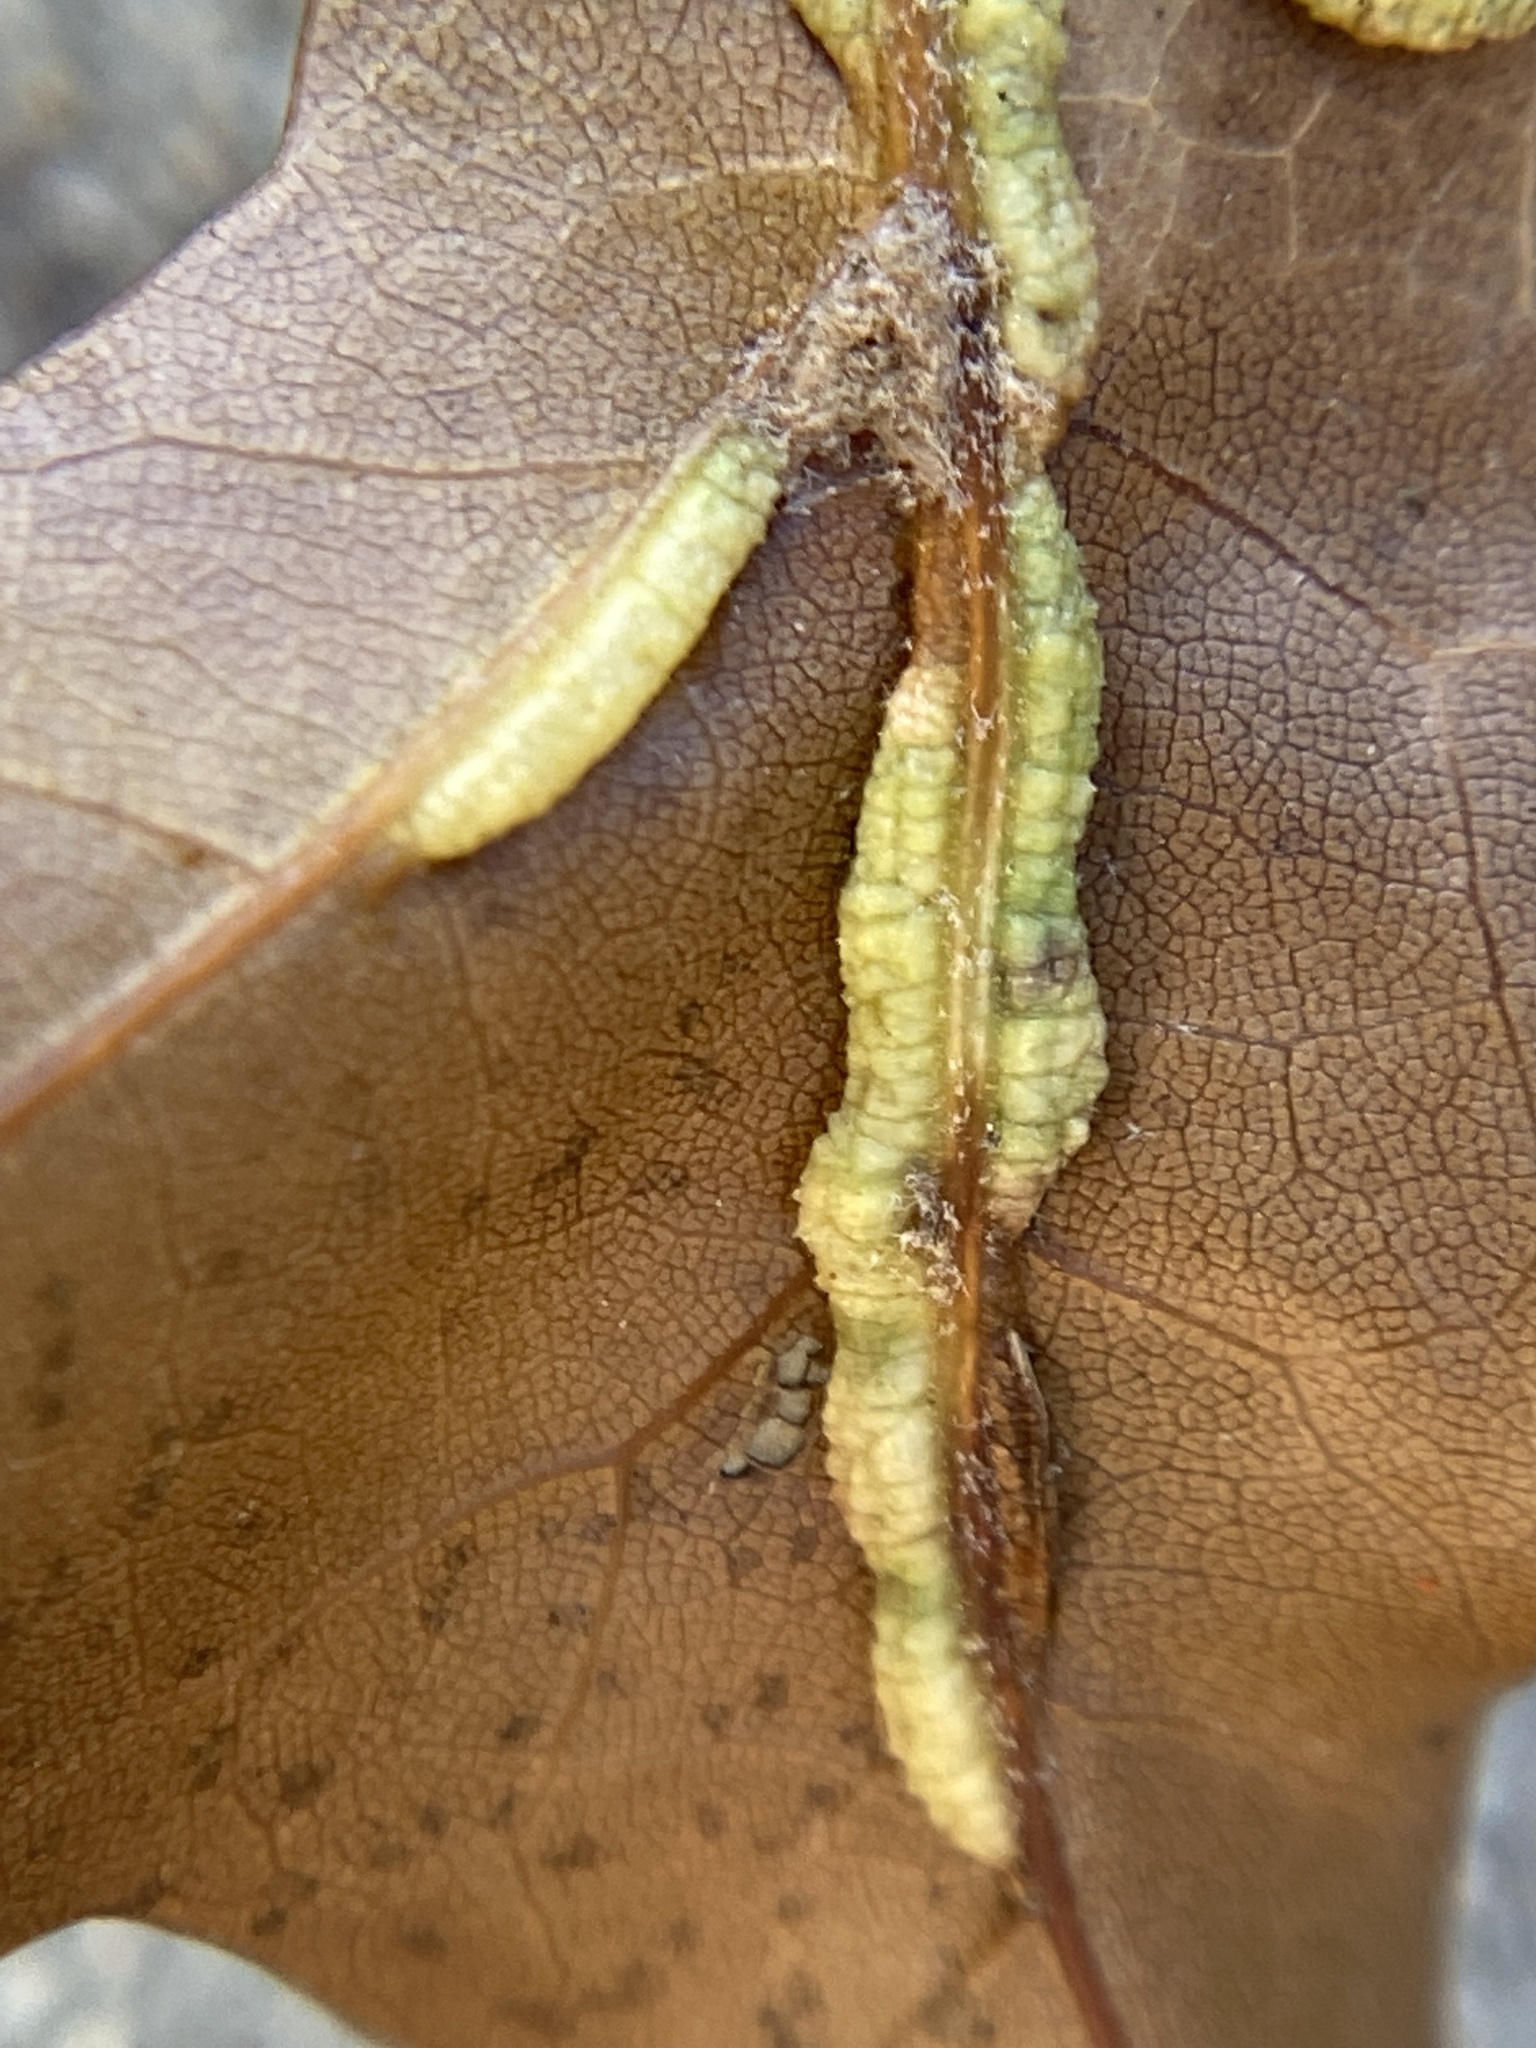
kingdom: Animalia
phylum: Arthropoda
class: Insecta
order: Diptera
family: Cecidomyiidae
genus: Macrodiplosis
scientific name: Macrodiplosis q-orucum
